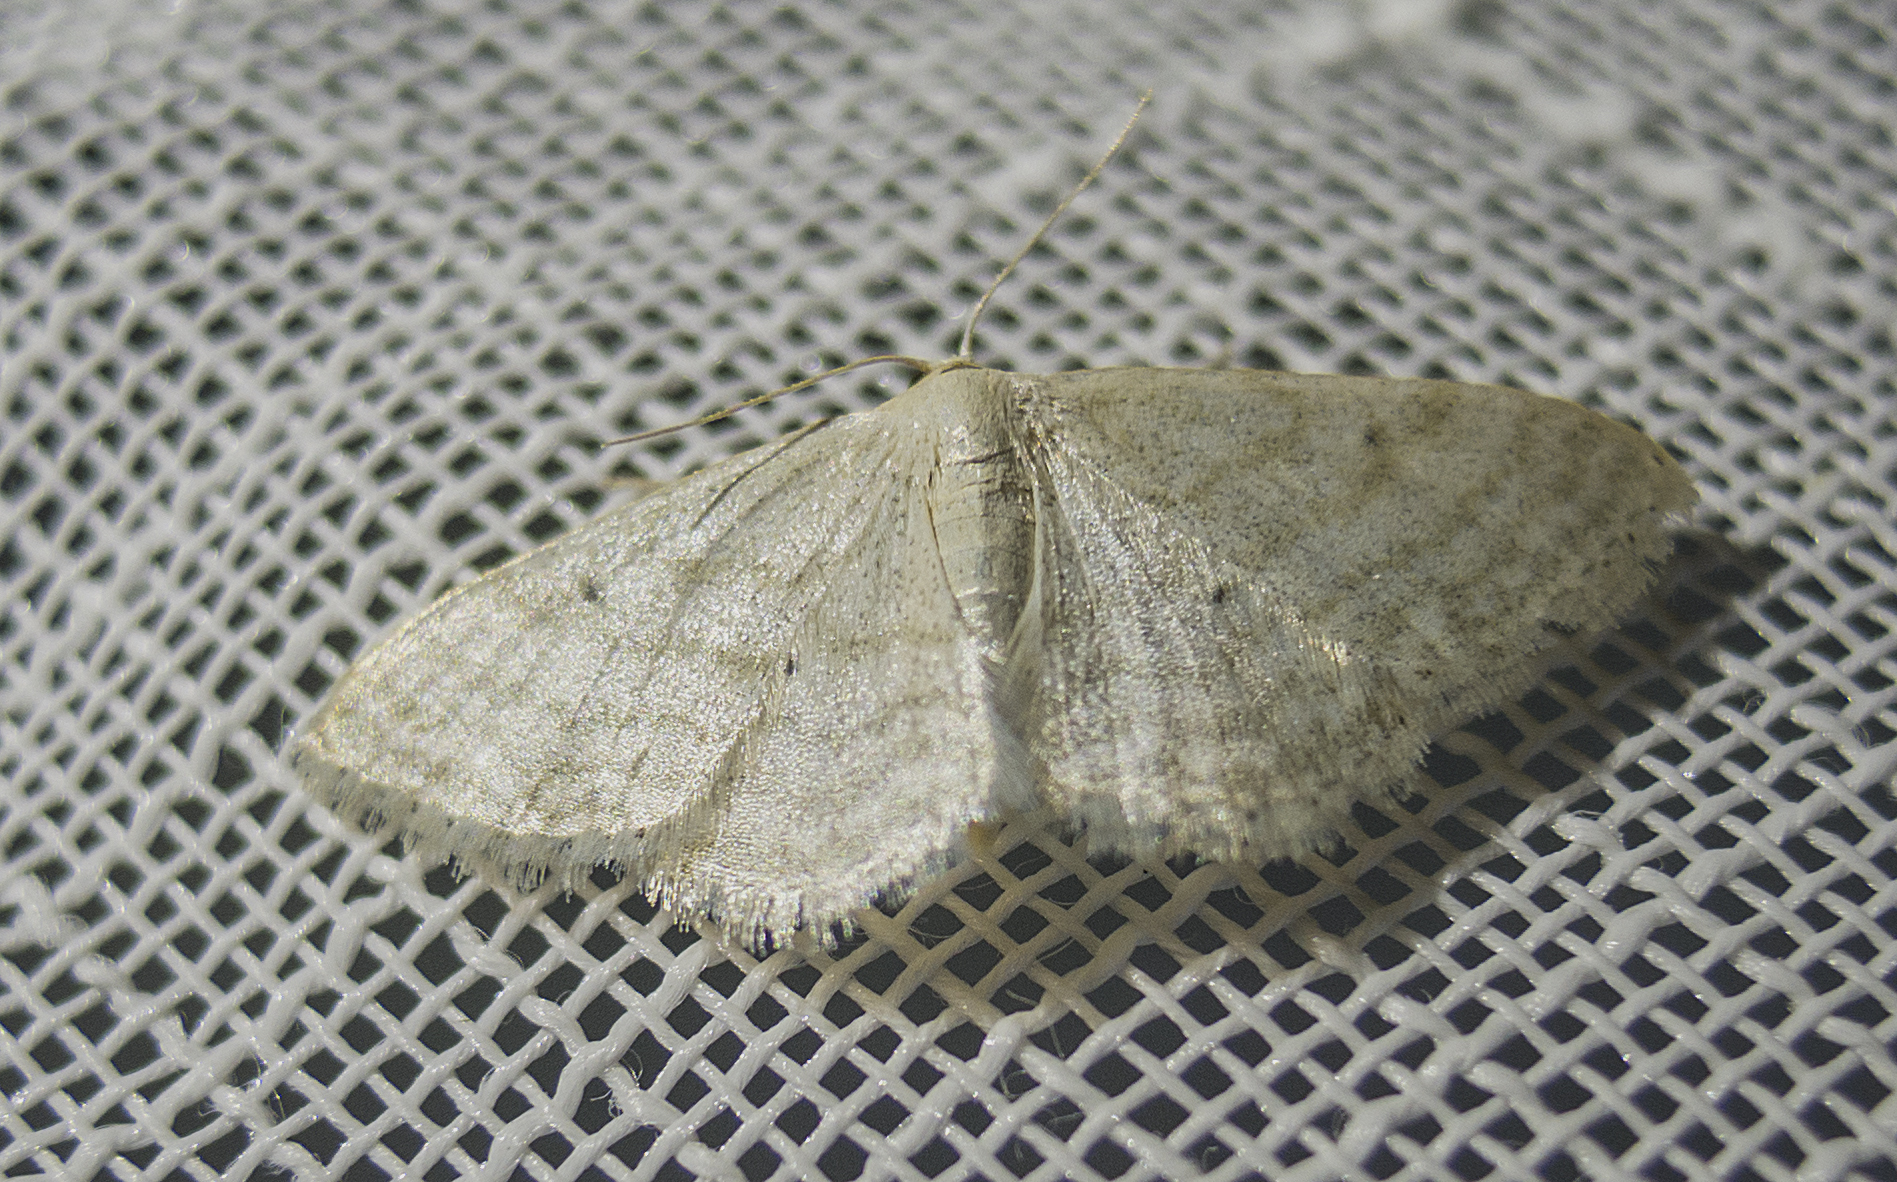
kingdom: Animalia
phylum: Arthropoda
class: Insecta
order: Lepidoptera
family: Geometridae
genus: Idaea
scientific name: Idaea subsericeata
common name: Satin wave
